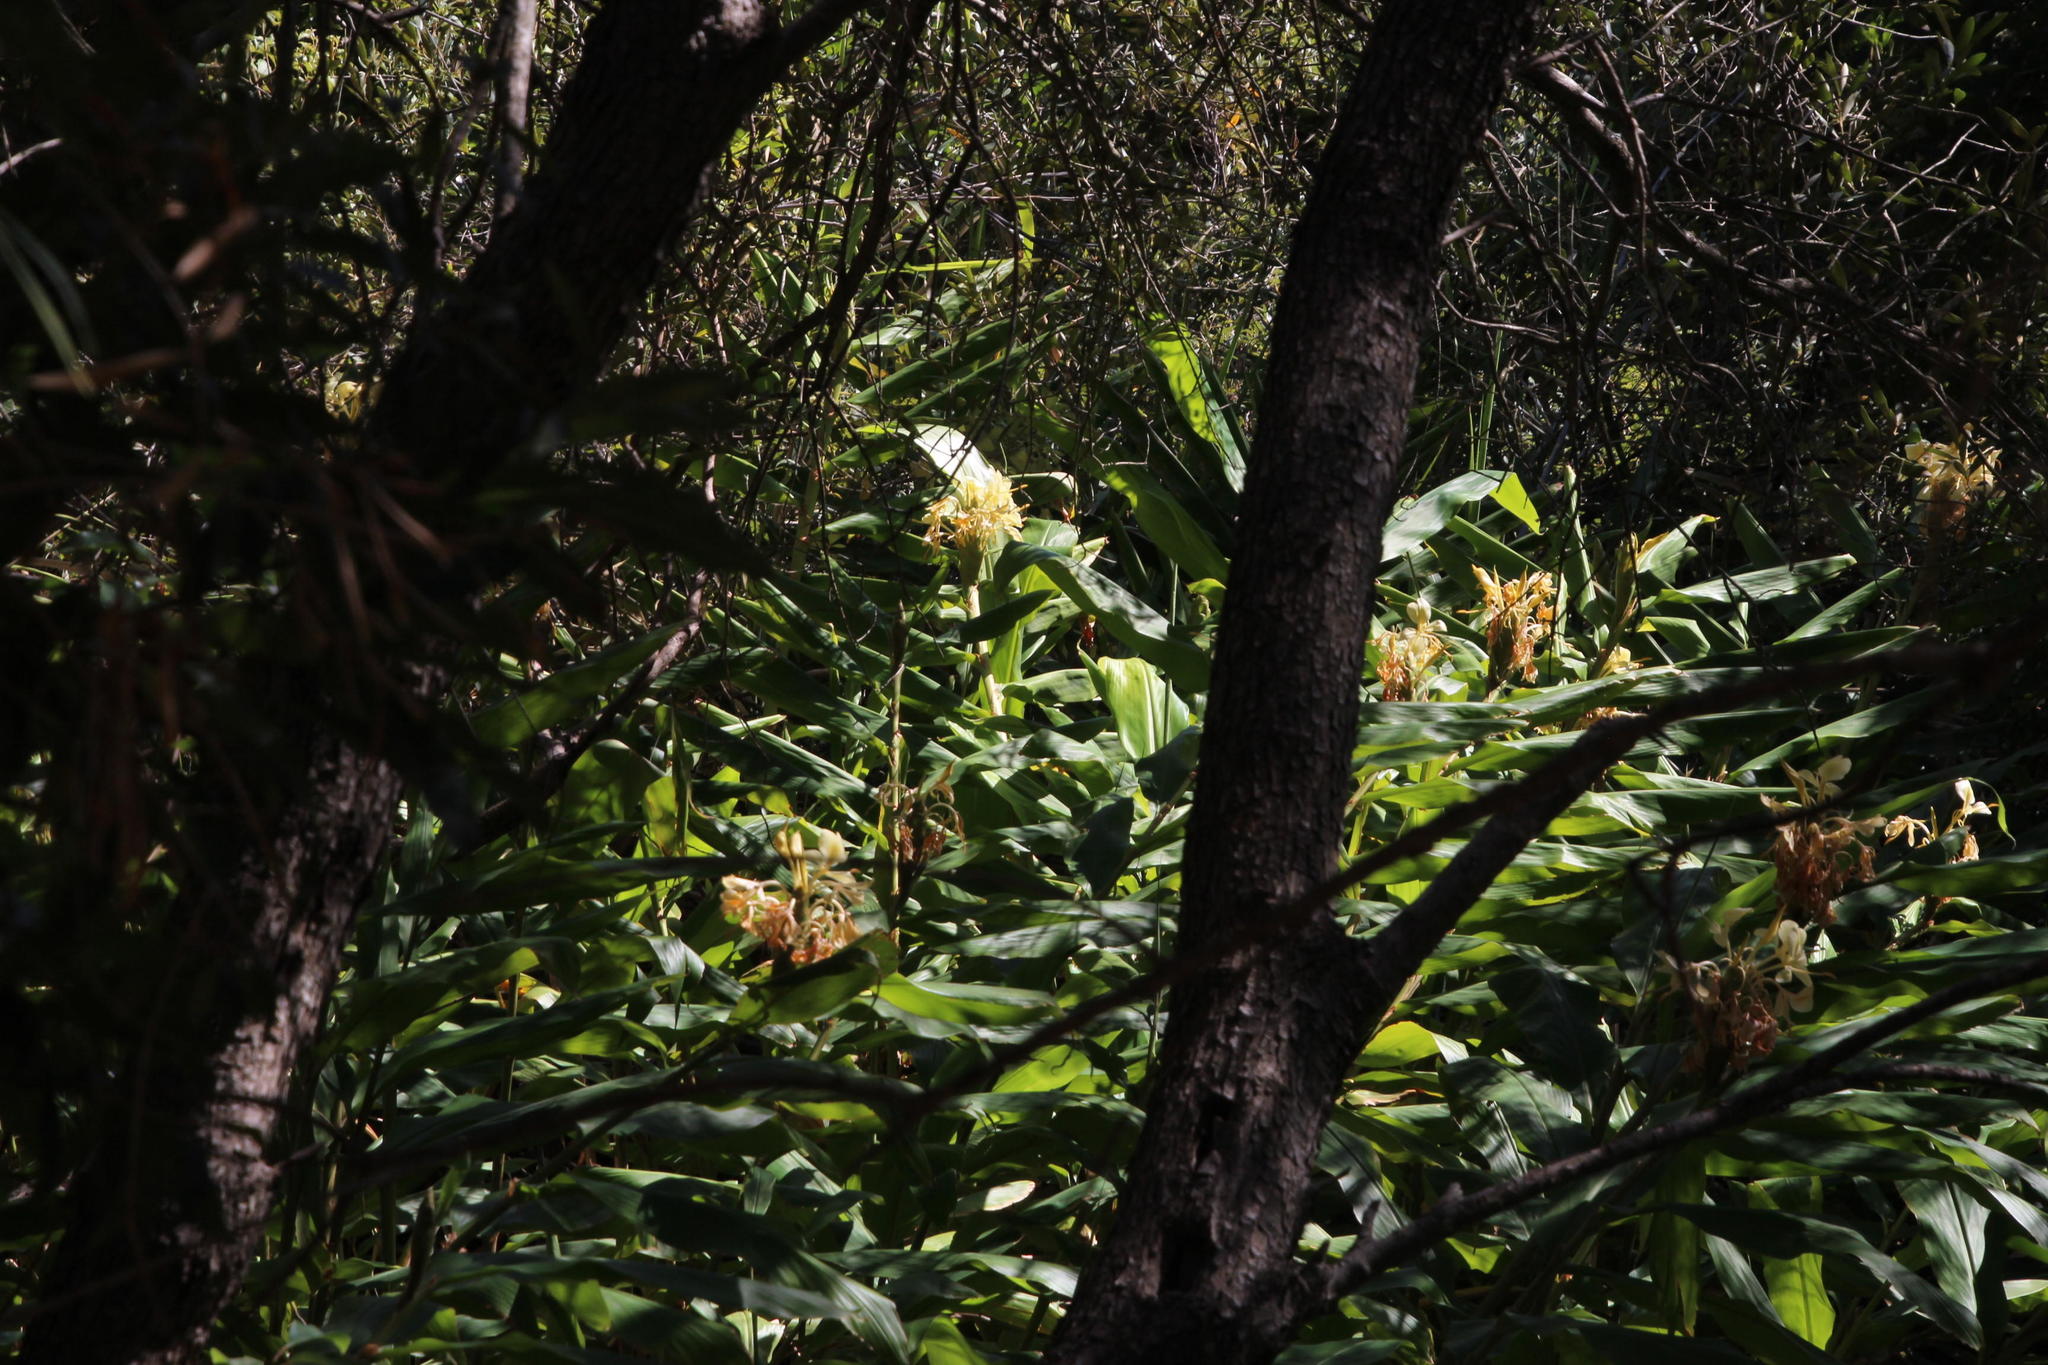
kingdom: Plantae
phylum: Tracheophyta
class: Liliopsida
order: Zingiberales
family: Zingiberaceae
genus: Hedychium
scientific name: Hedychium flavescens
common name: Yellow ginger
